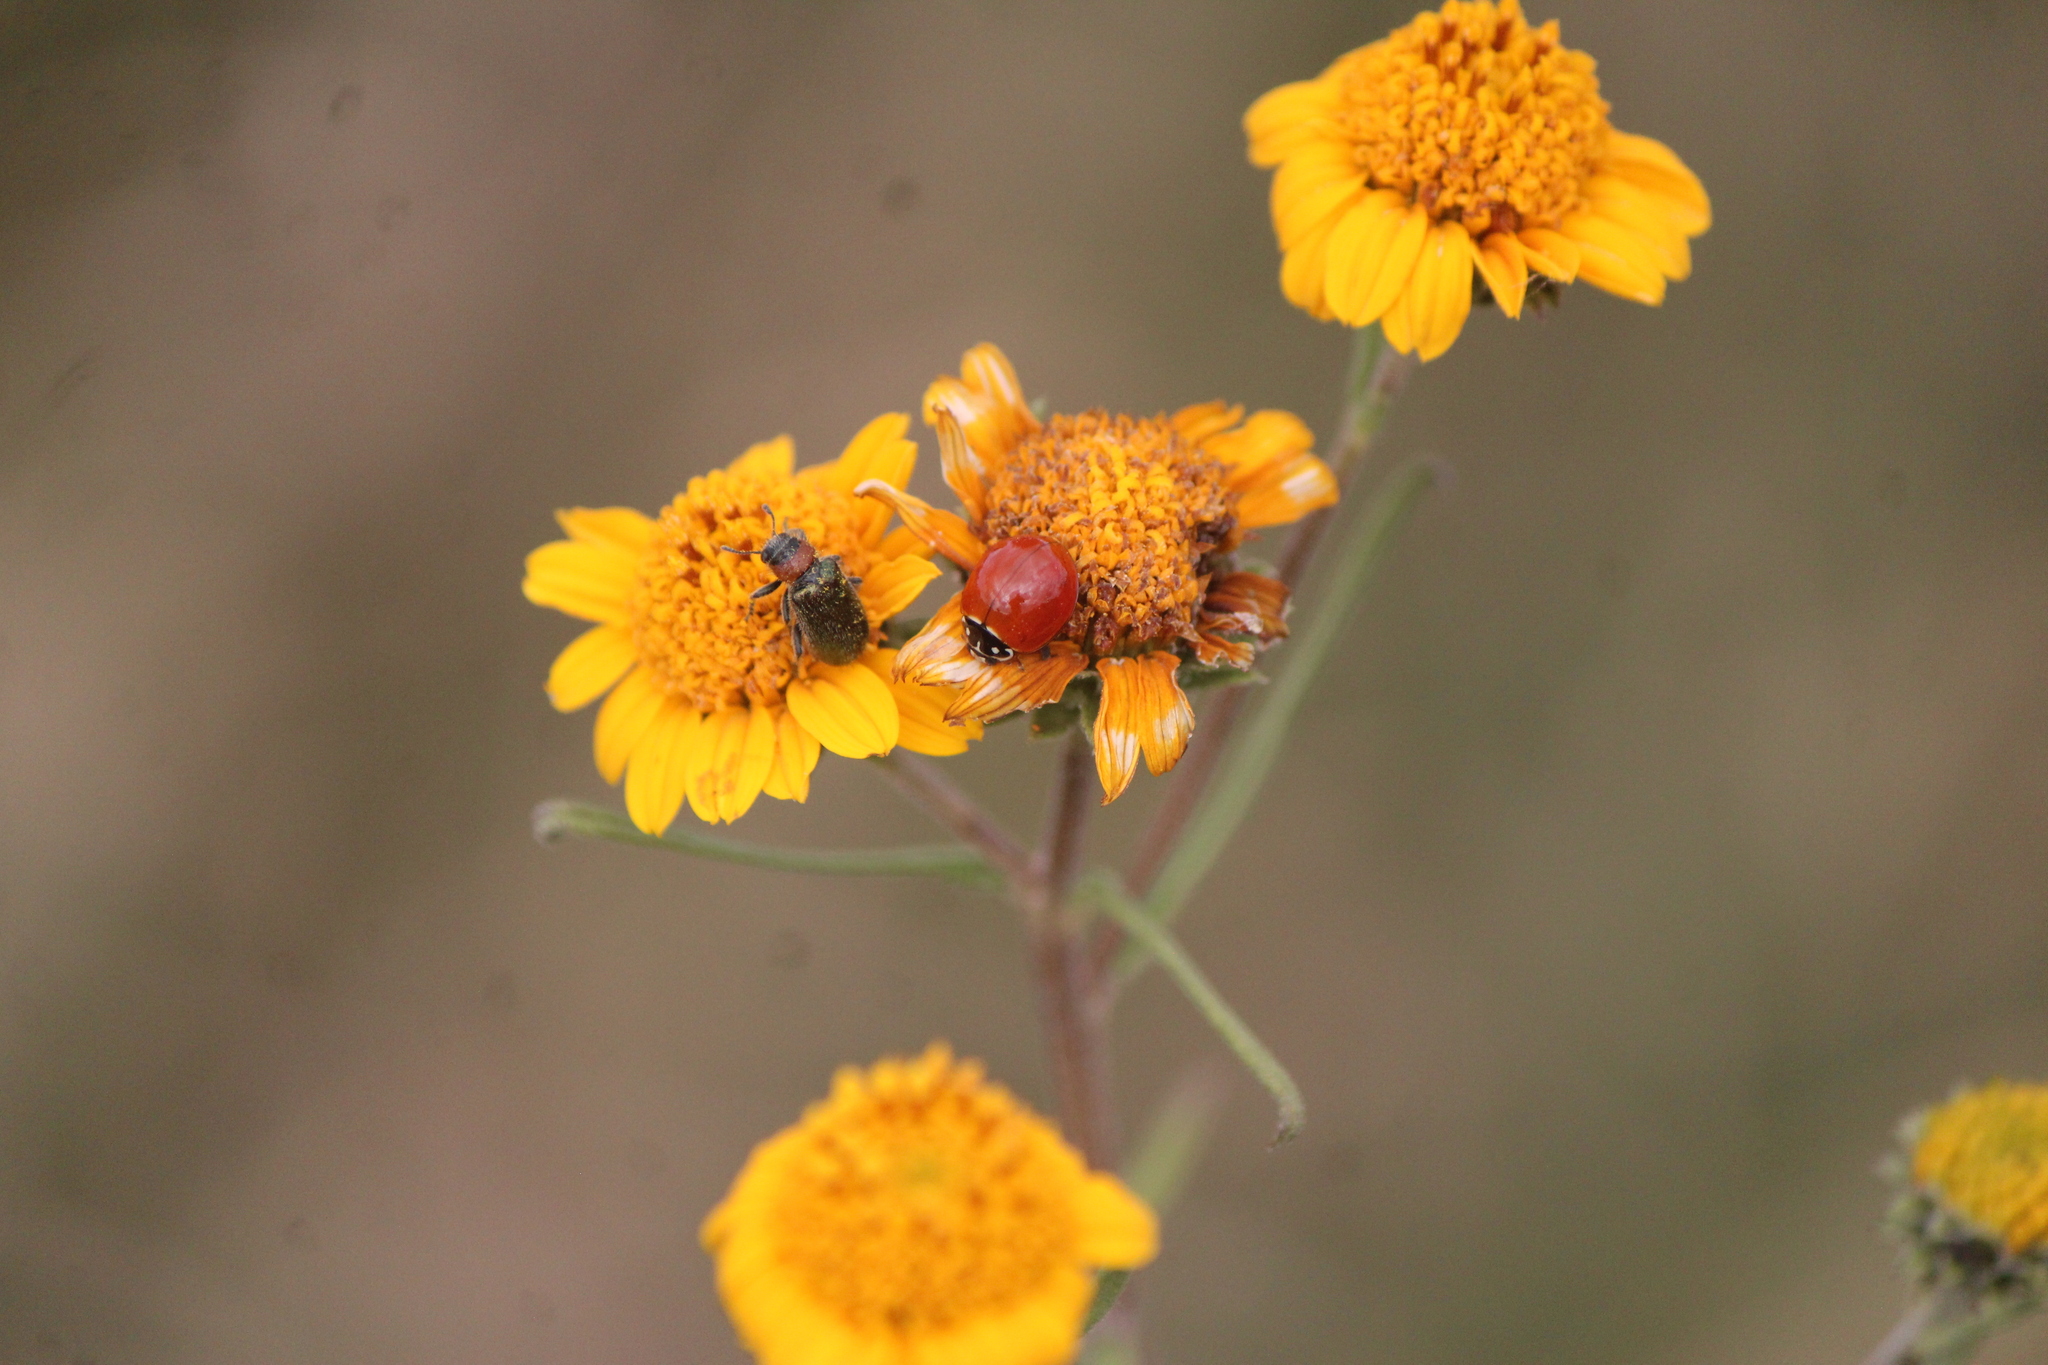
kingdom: Animalia
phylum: Arthropoda
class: Insecta
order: Coleoptera
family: Coccinellidae
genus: Cycloneda
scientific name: Cycloneda sanguinea
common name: Ladybird beetle
